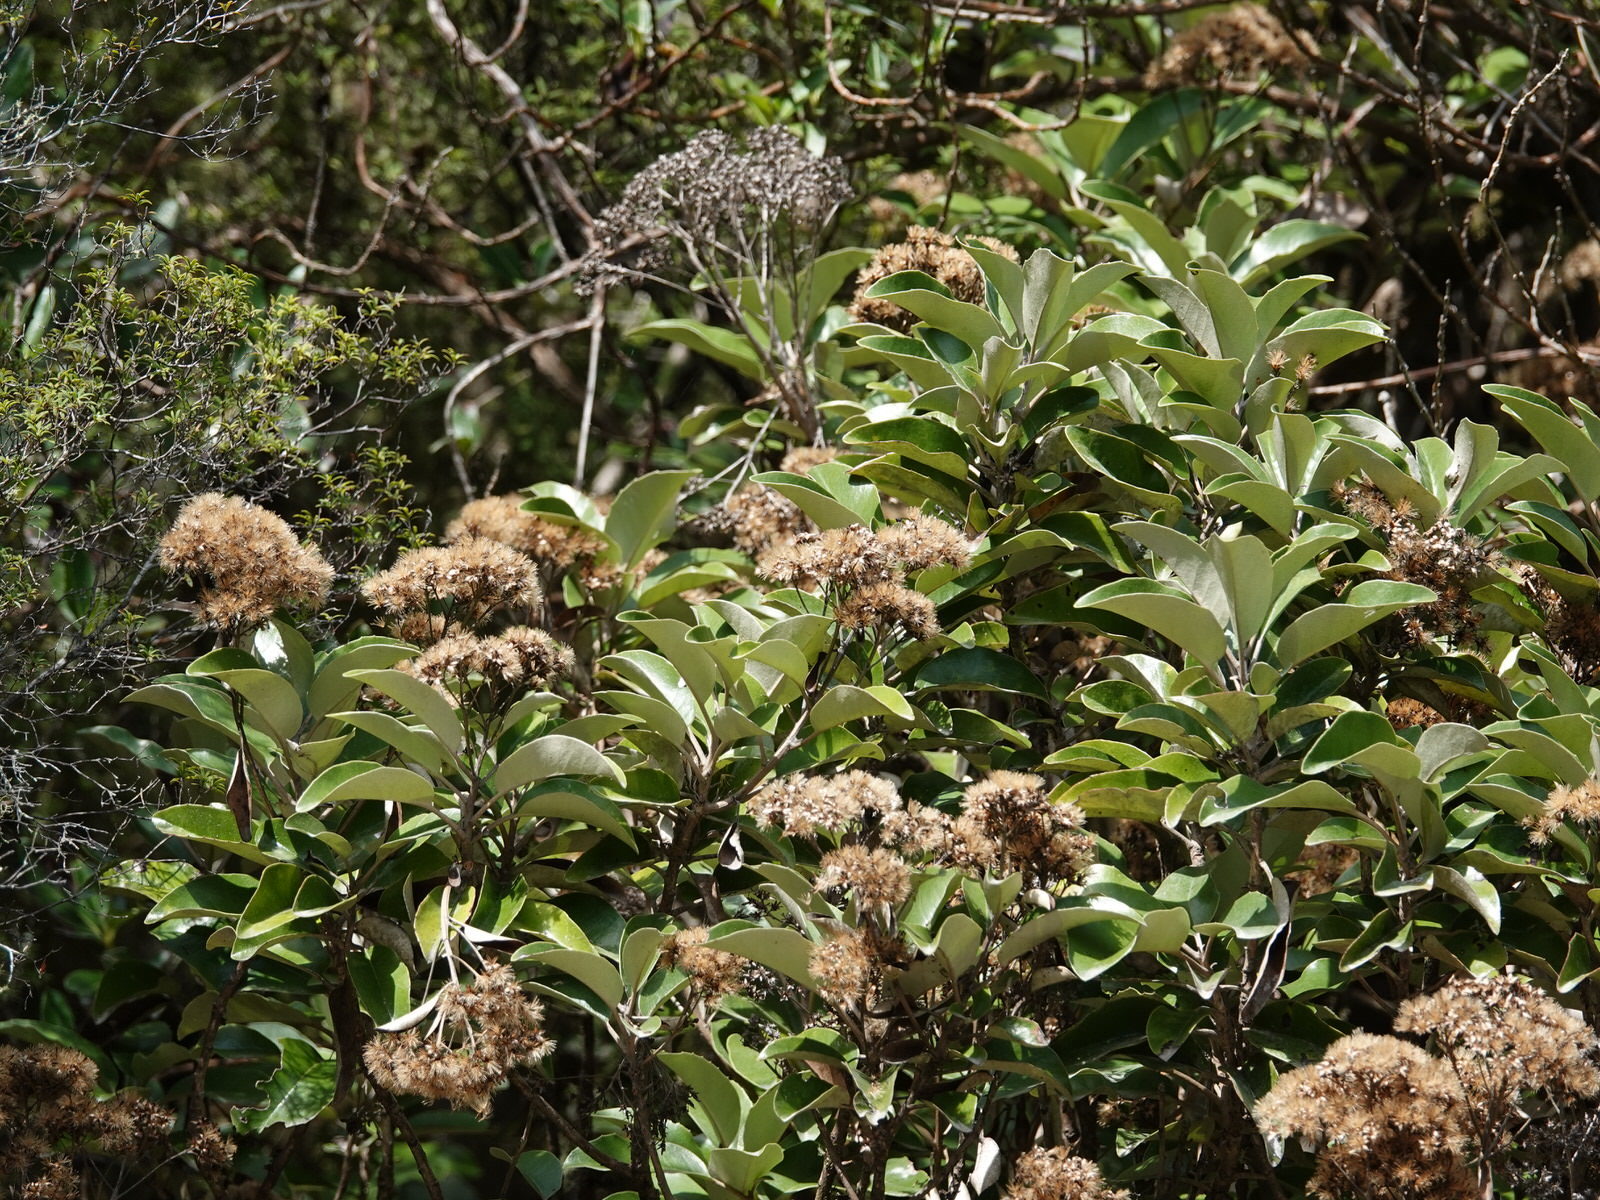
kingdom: Plantae
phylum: Tracheophyta
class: Magnoliopsida
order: Asterales
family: Asteraceae
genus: Olearia
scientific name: Olearia furfuracea
